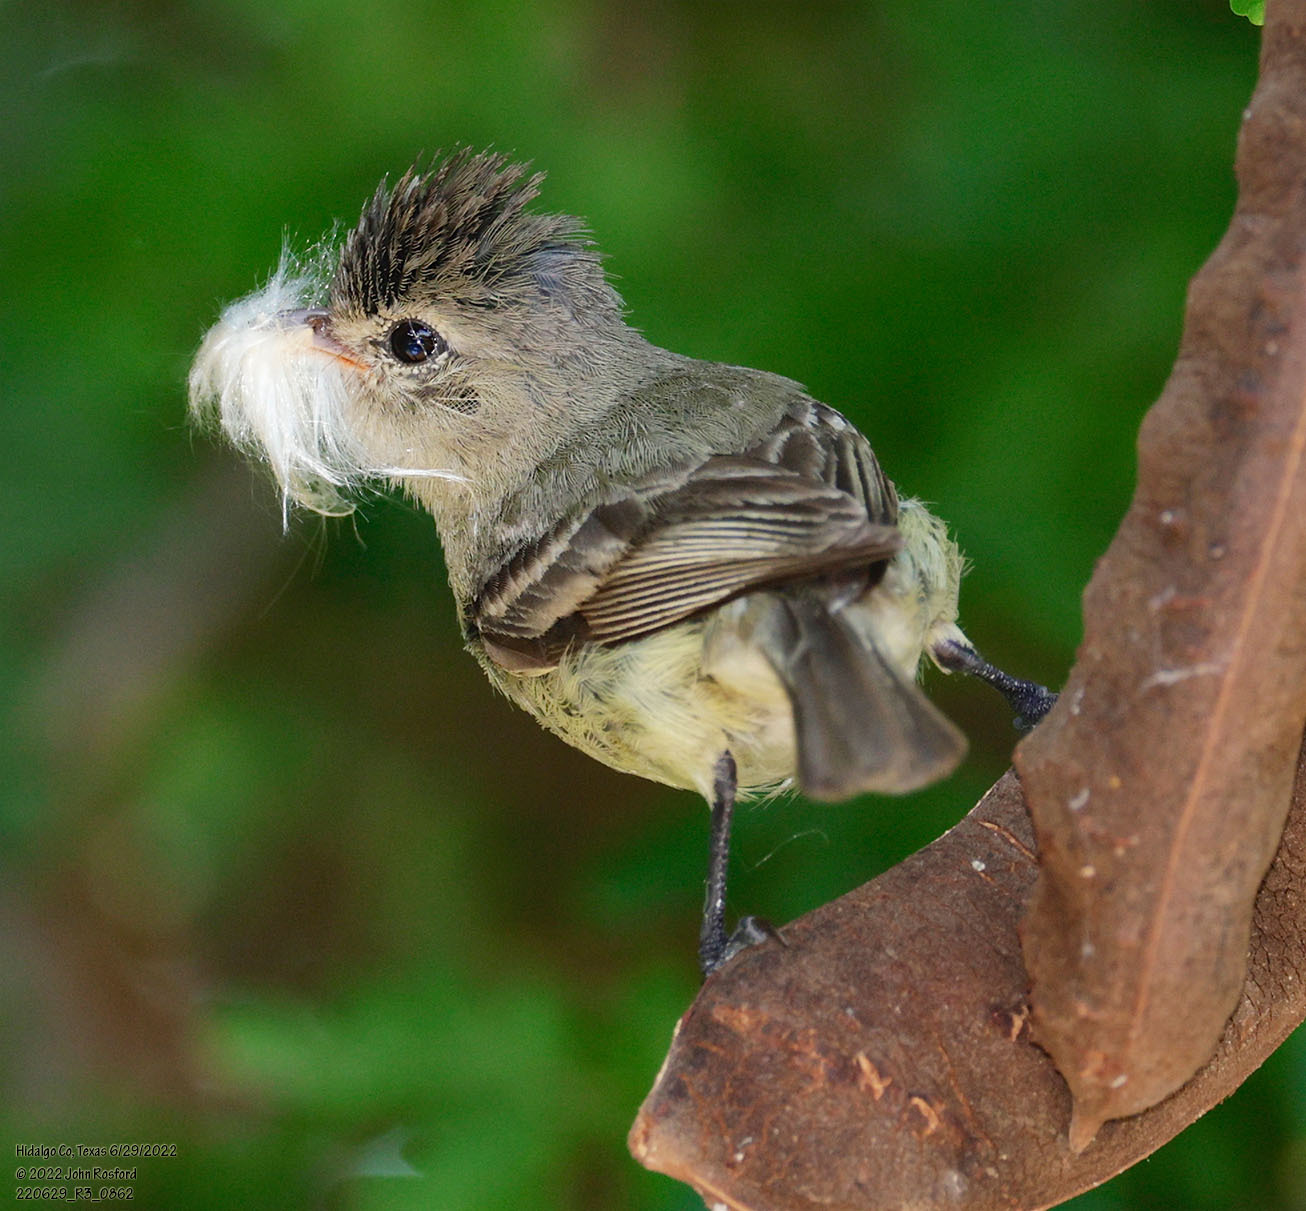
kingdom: Animalia
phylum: Chordata
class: Aves
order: Passeriformes
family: Tyrannidae
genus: Camptostoma
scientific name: Camptostoma imberbe
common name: Northern beardless-tyrannulet
